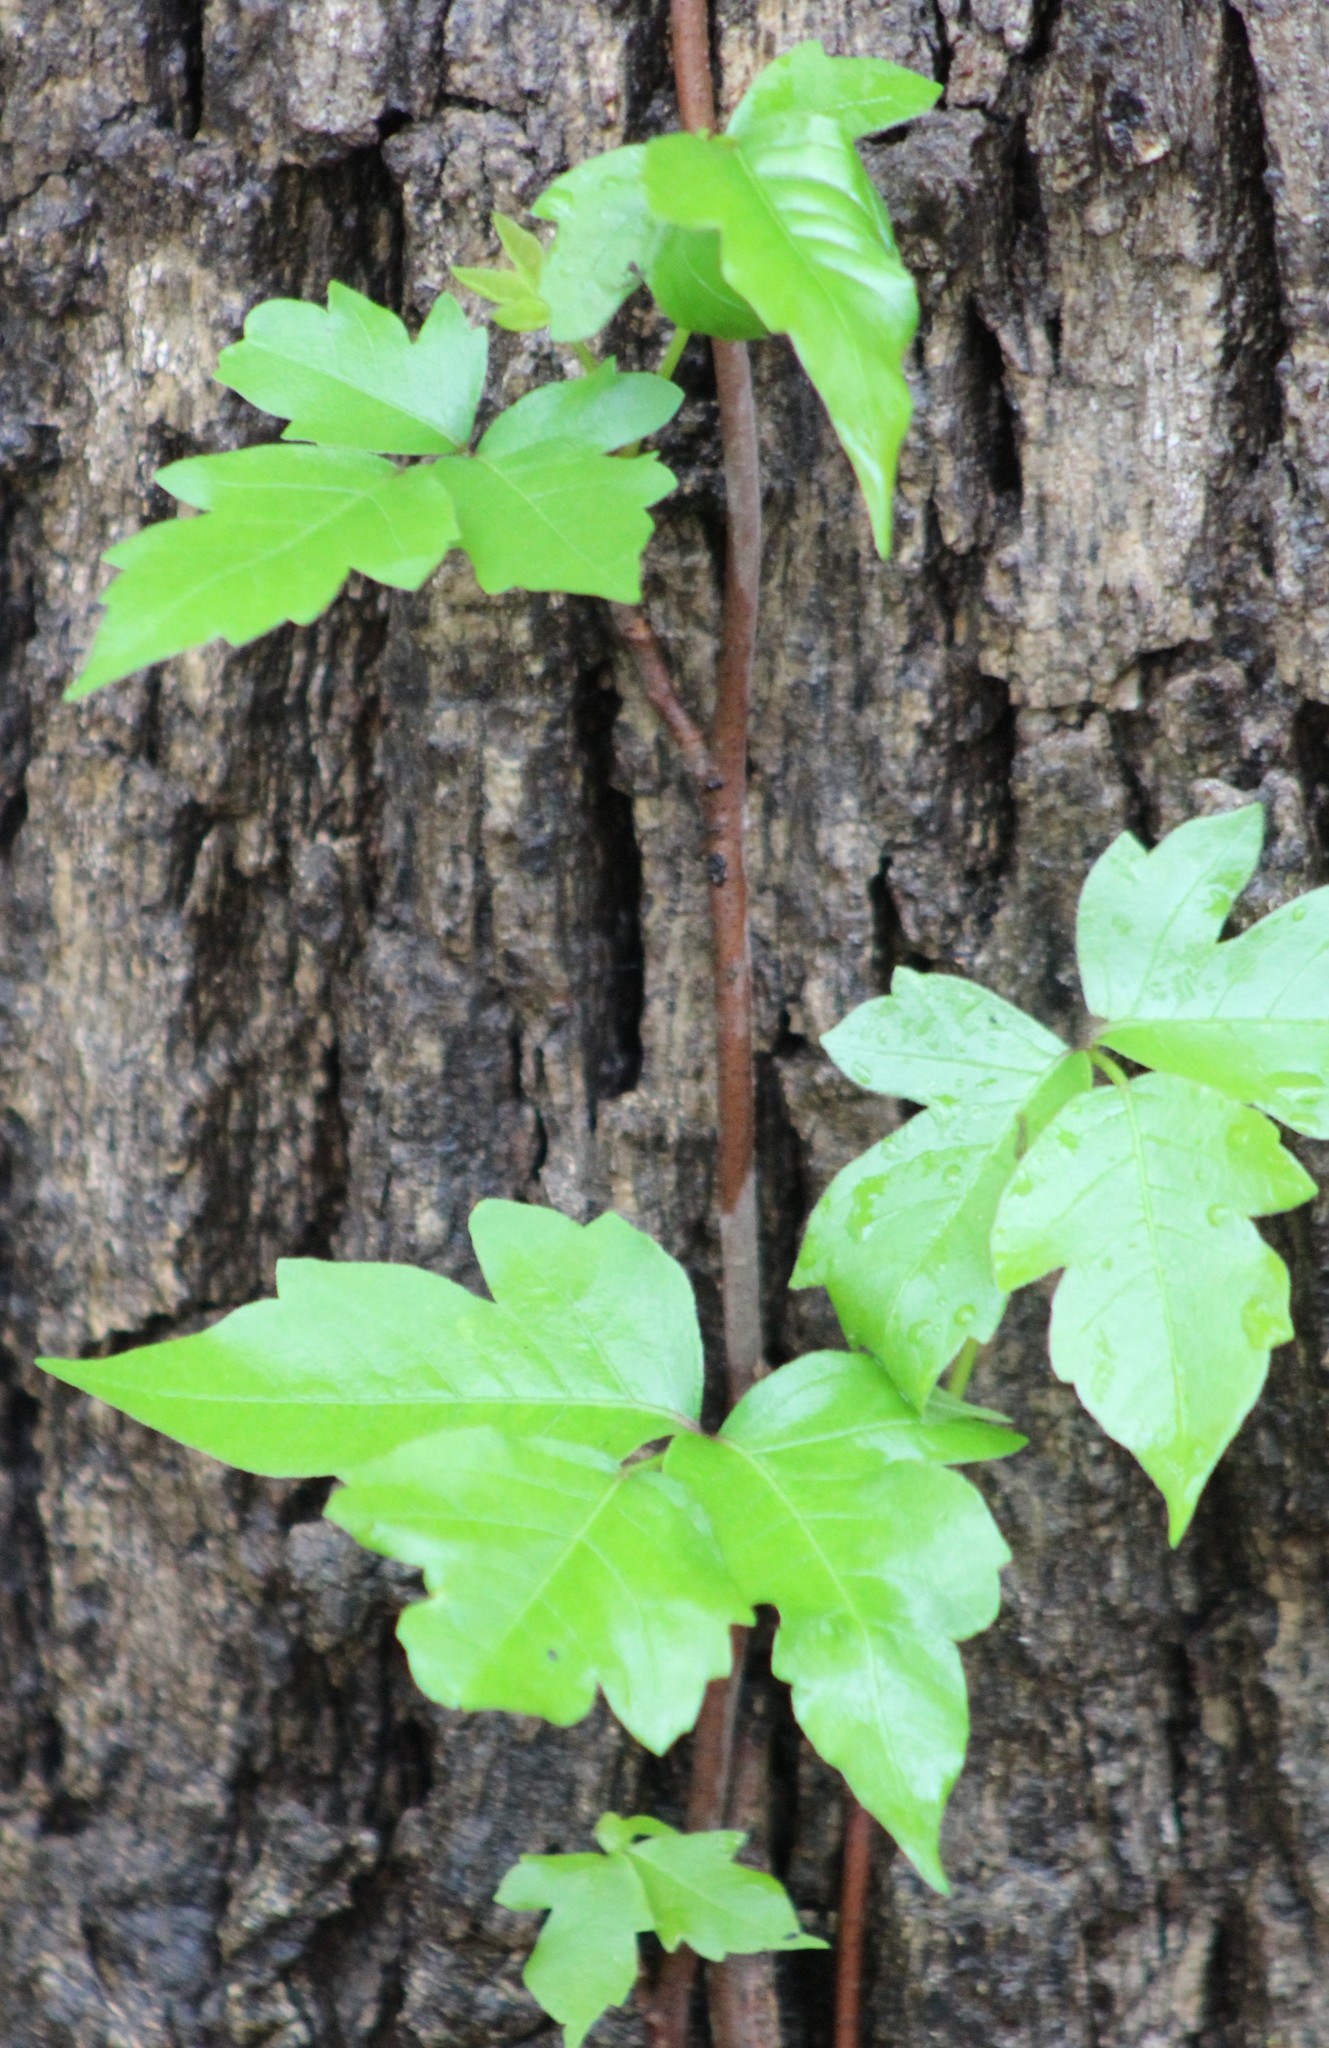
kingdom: Plantae
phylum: Tracheophyta
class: Magnoliopsida
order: Sapindales
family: Anacardiaceae
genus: Toxicodendron
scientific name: Toxicodendron radicans
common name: Poison ivy
